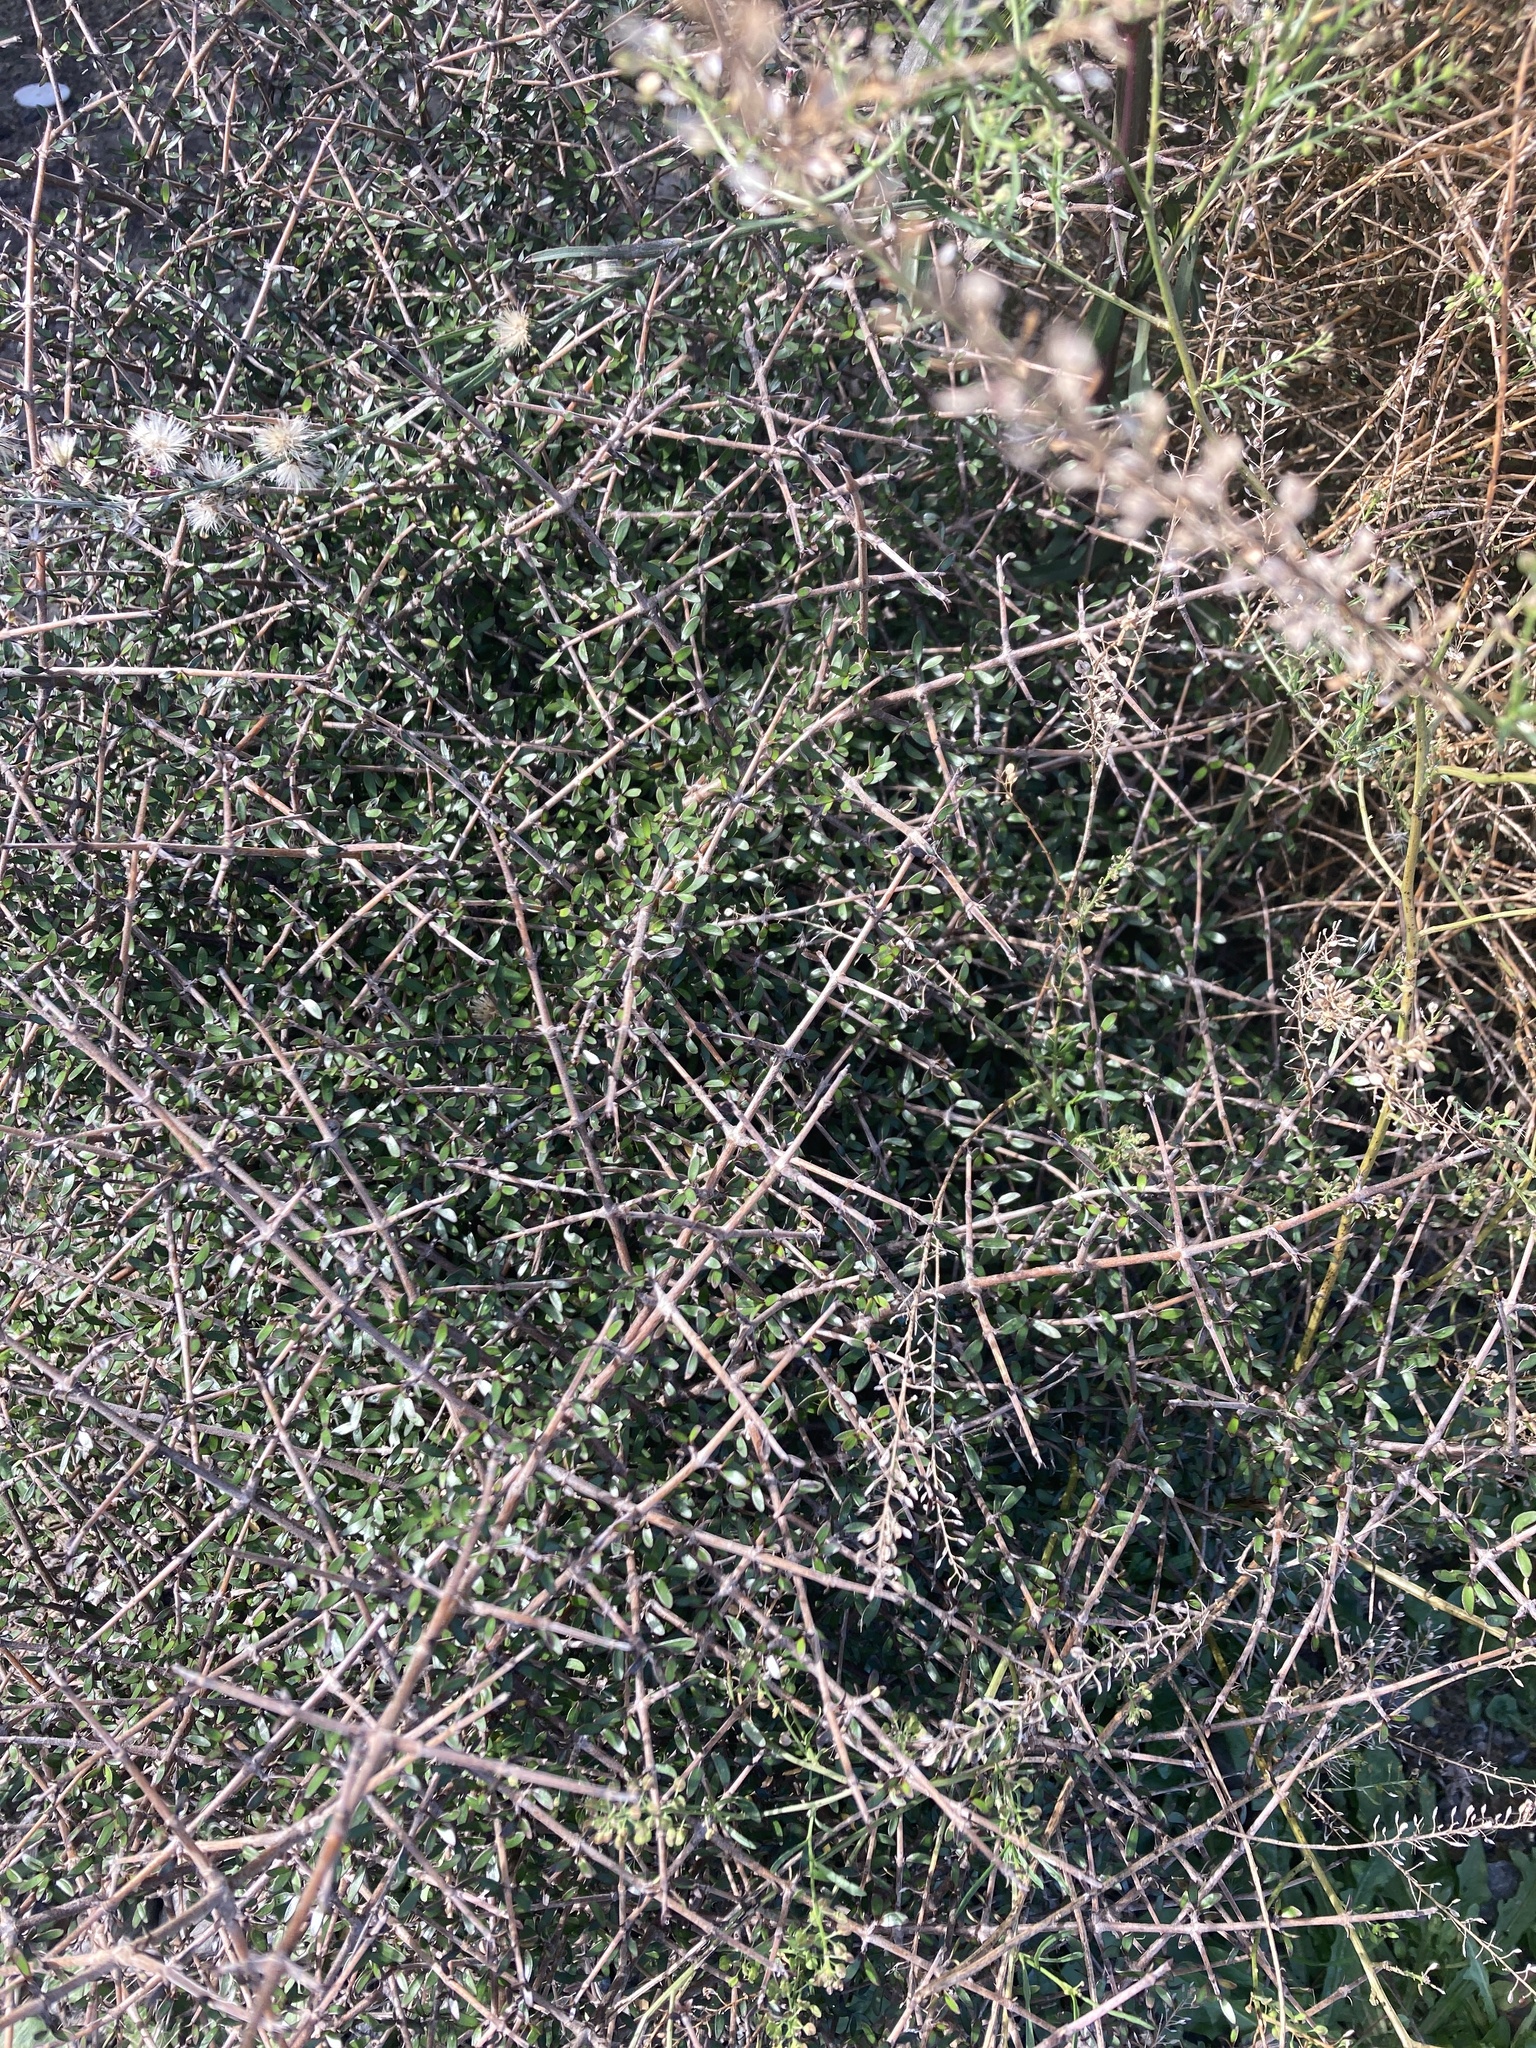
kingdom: Plantae
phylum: Tracheophyta
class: Magnoliopsida
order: Gentianales
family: Rubiaceae
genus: Coprosma
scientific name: Coprosma propinqua
